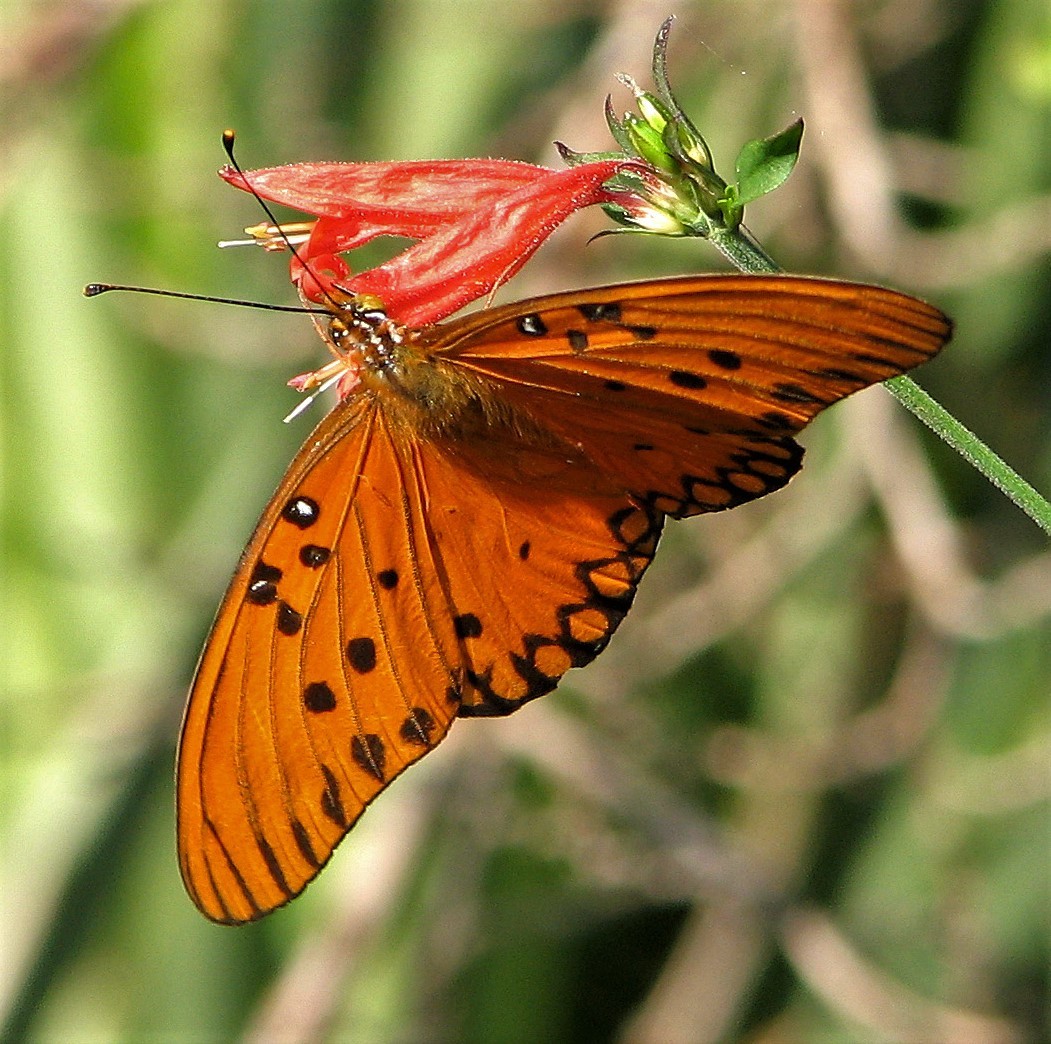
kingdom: Animalia
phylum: Arthropoda
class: Insecta
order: Lepidoptera
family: Nymphalidae
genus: Dione
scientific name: Dione vanillae
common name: Gulf fritillary
